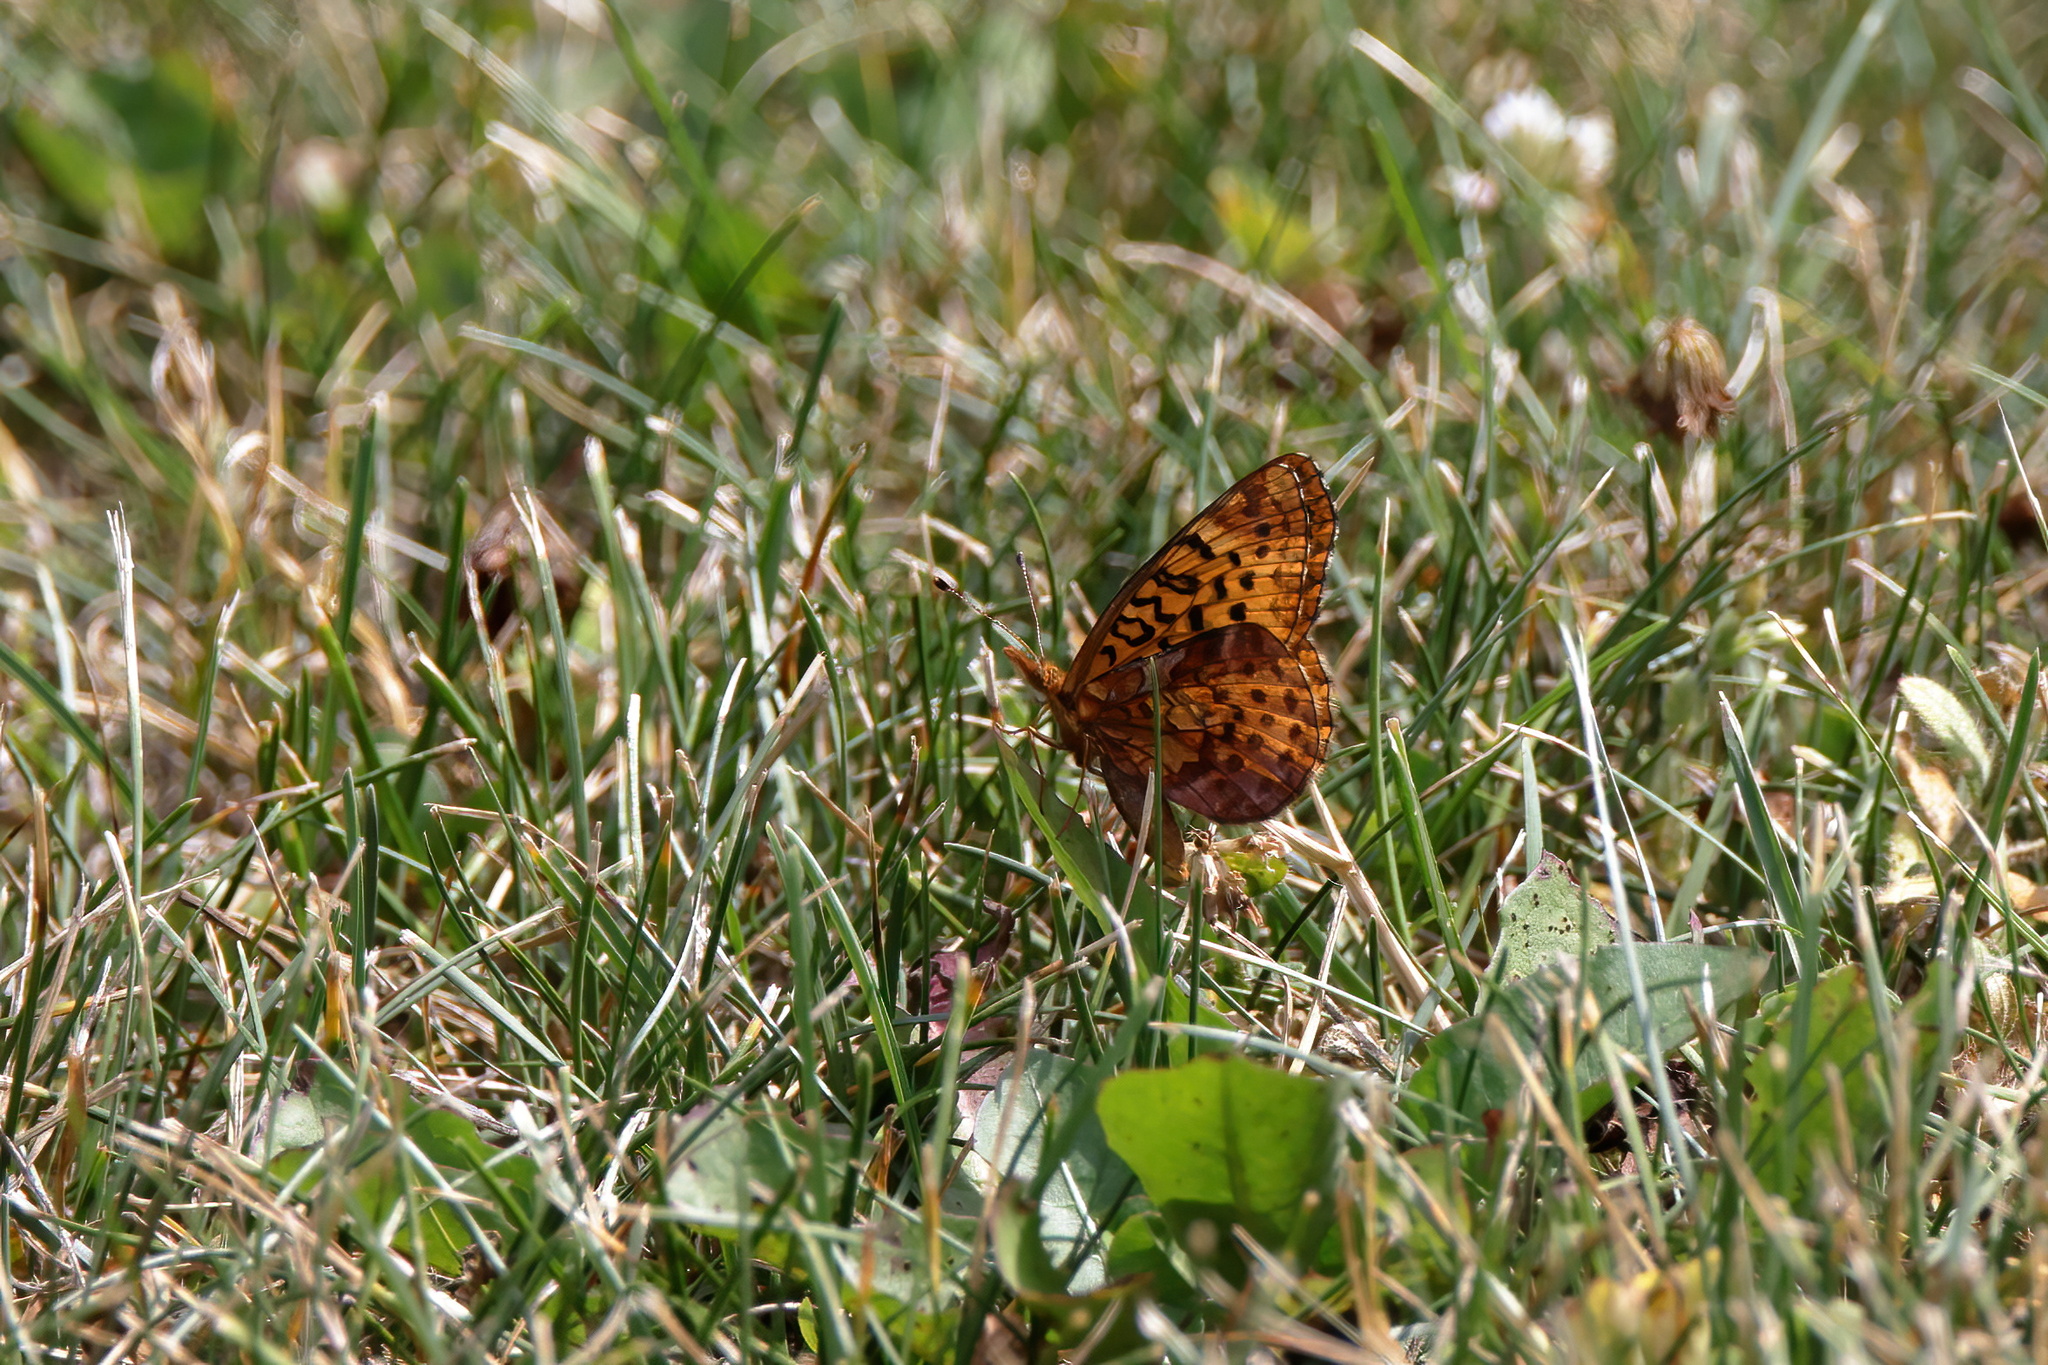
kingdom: Animalia
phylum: Arthropoda
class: Insecta
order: Lepidoptera
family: Nymphalidae
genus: Clossiana
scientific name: Clossiana toddi
